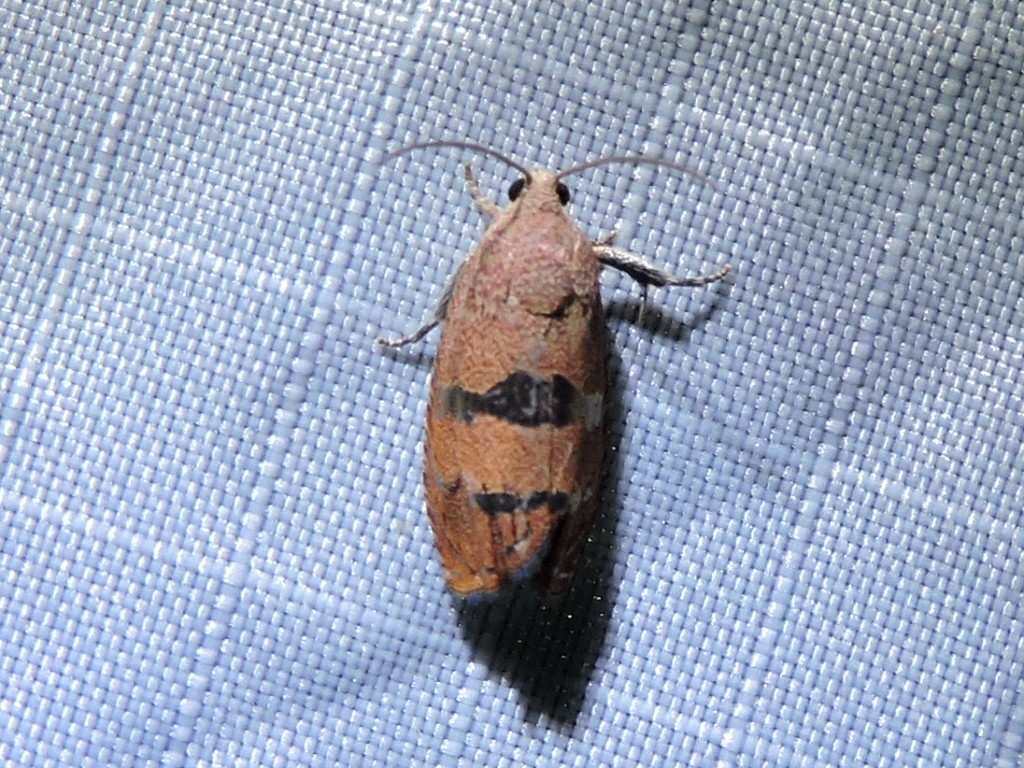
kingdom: Animalia
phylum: Arthropoda
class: Insecta
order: Lepidoptera
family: Tortricidae
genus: Cydia
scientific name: Cydia latiferreana
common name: Filbertworm moth
